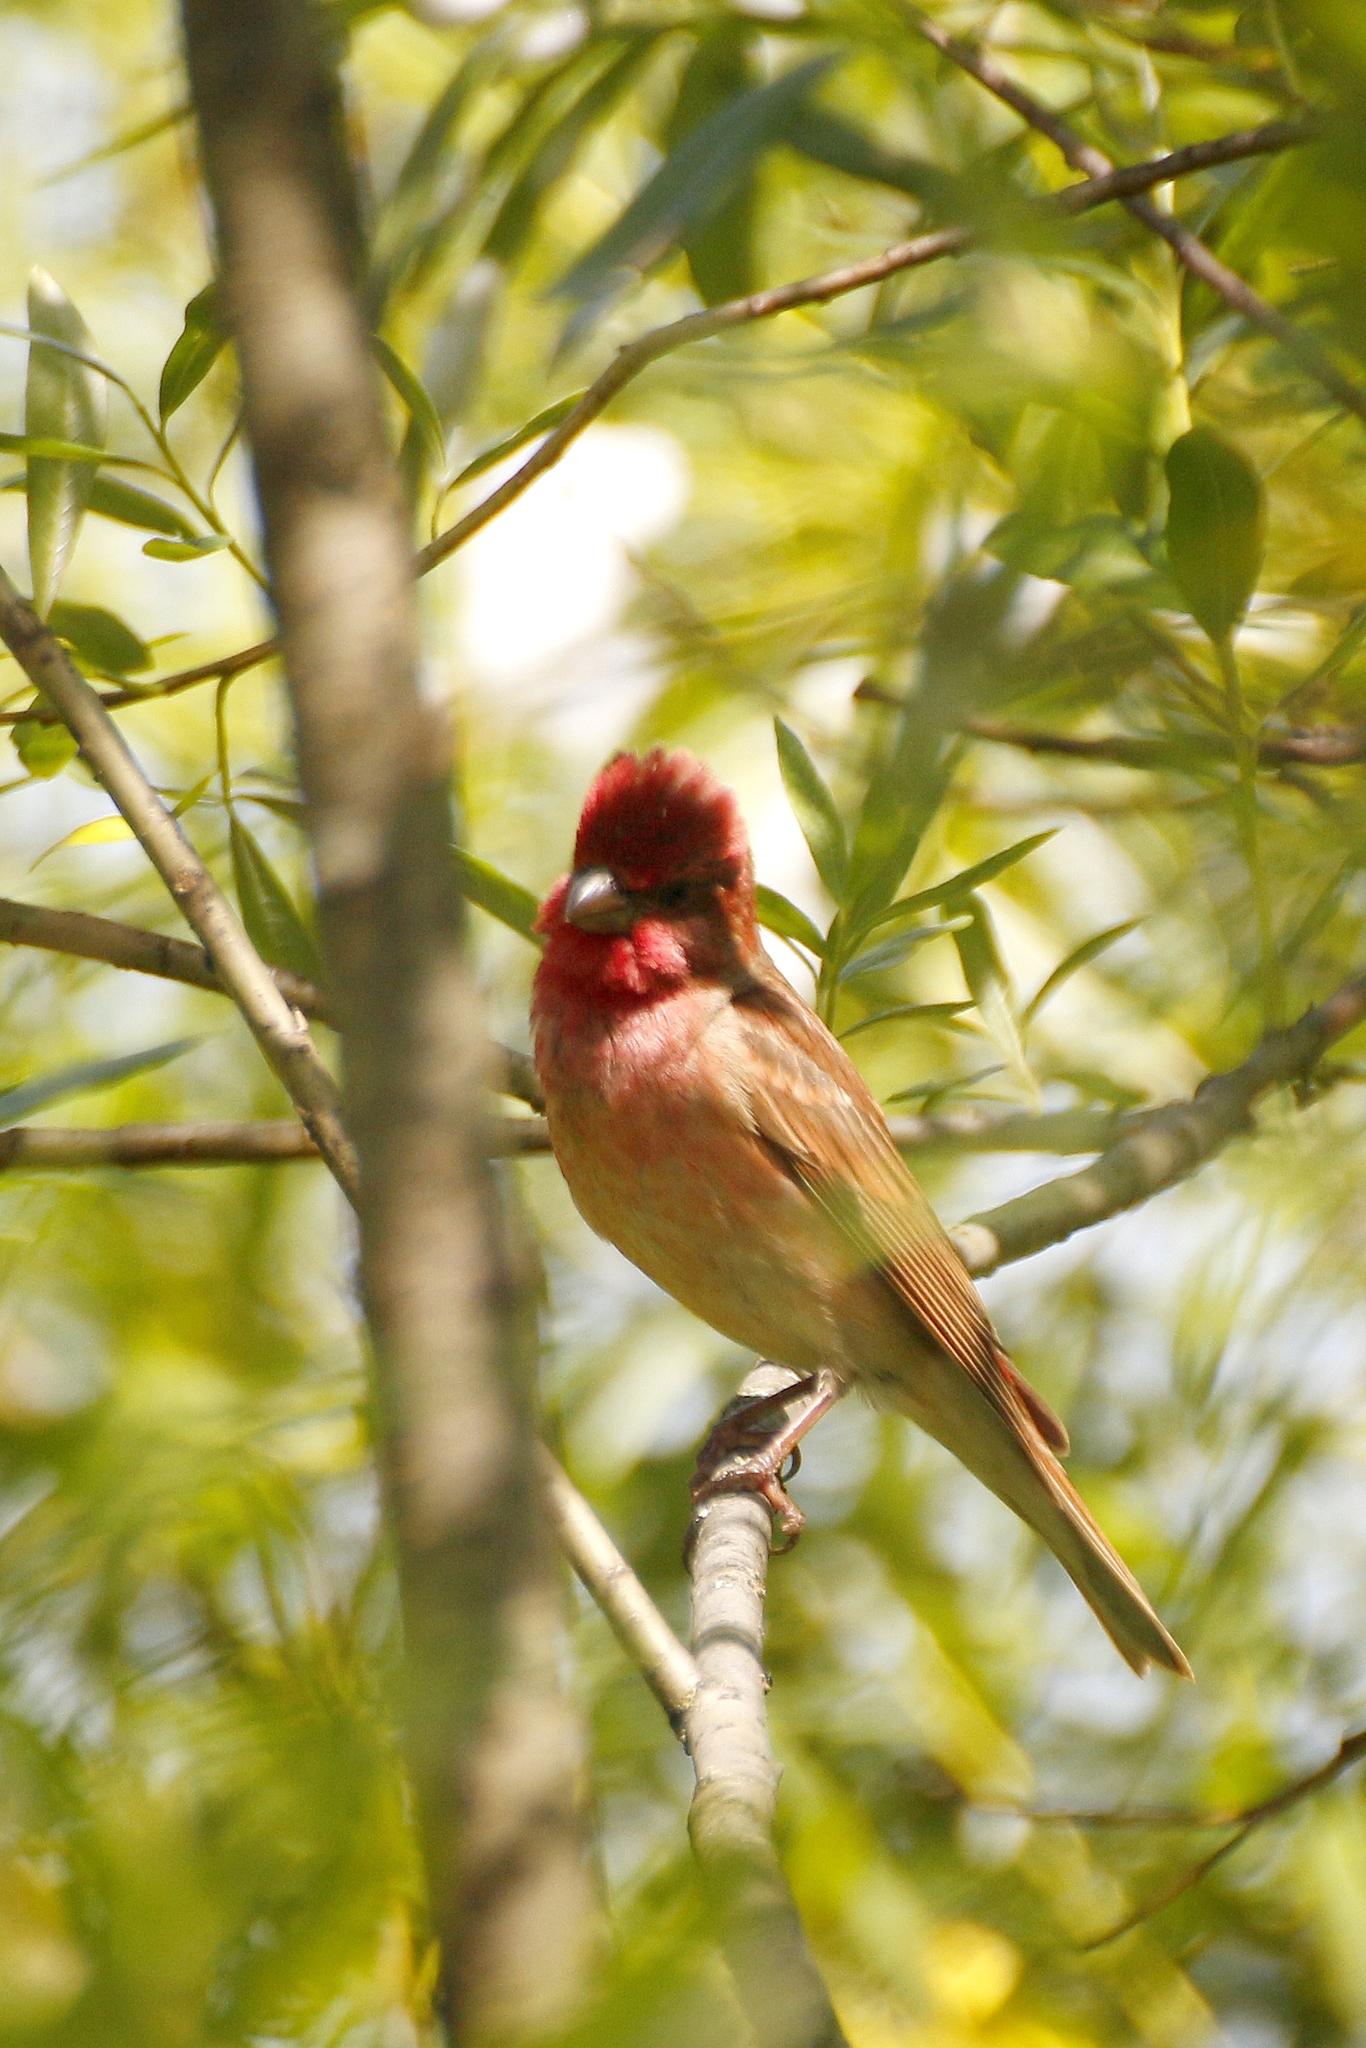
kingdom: Animalia
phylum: Chordata
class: Aves
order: Passeriformes
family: Fringillidae
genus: Carpodacus
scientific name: Carpodacus erythrinus
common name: Common rosefinch
